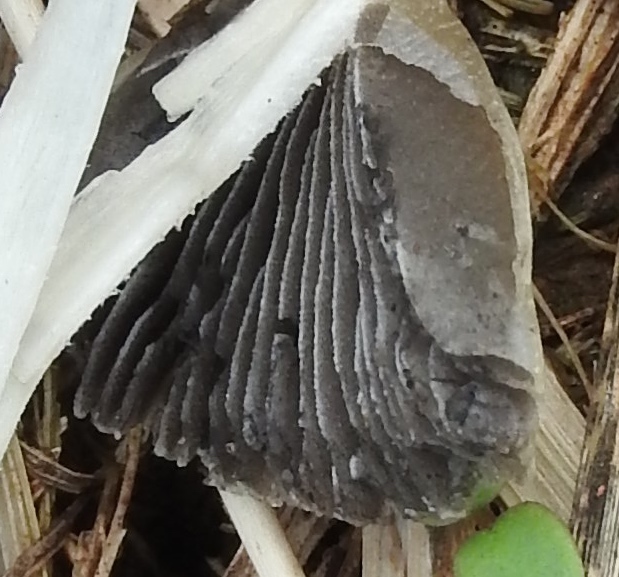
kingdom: Fungi
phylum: Basidiomycota
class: Agaricomycetes
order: Agaricales
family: Psathyrellaceae
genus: Coprinellus
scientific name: Coprinellus
